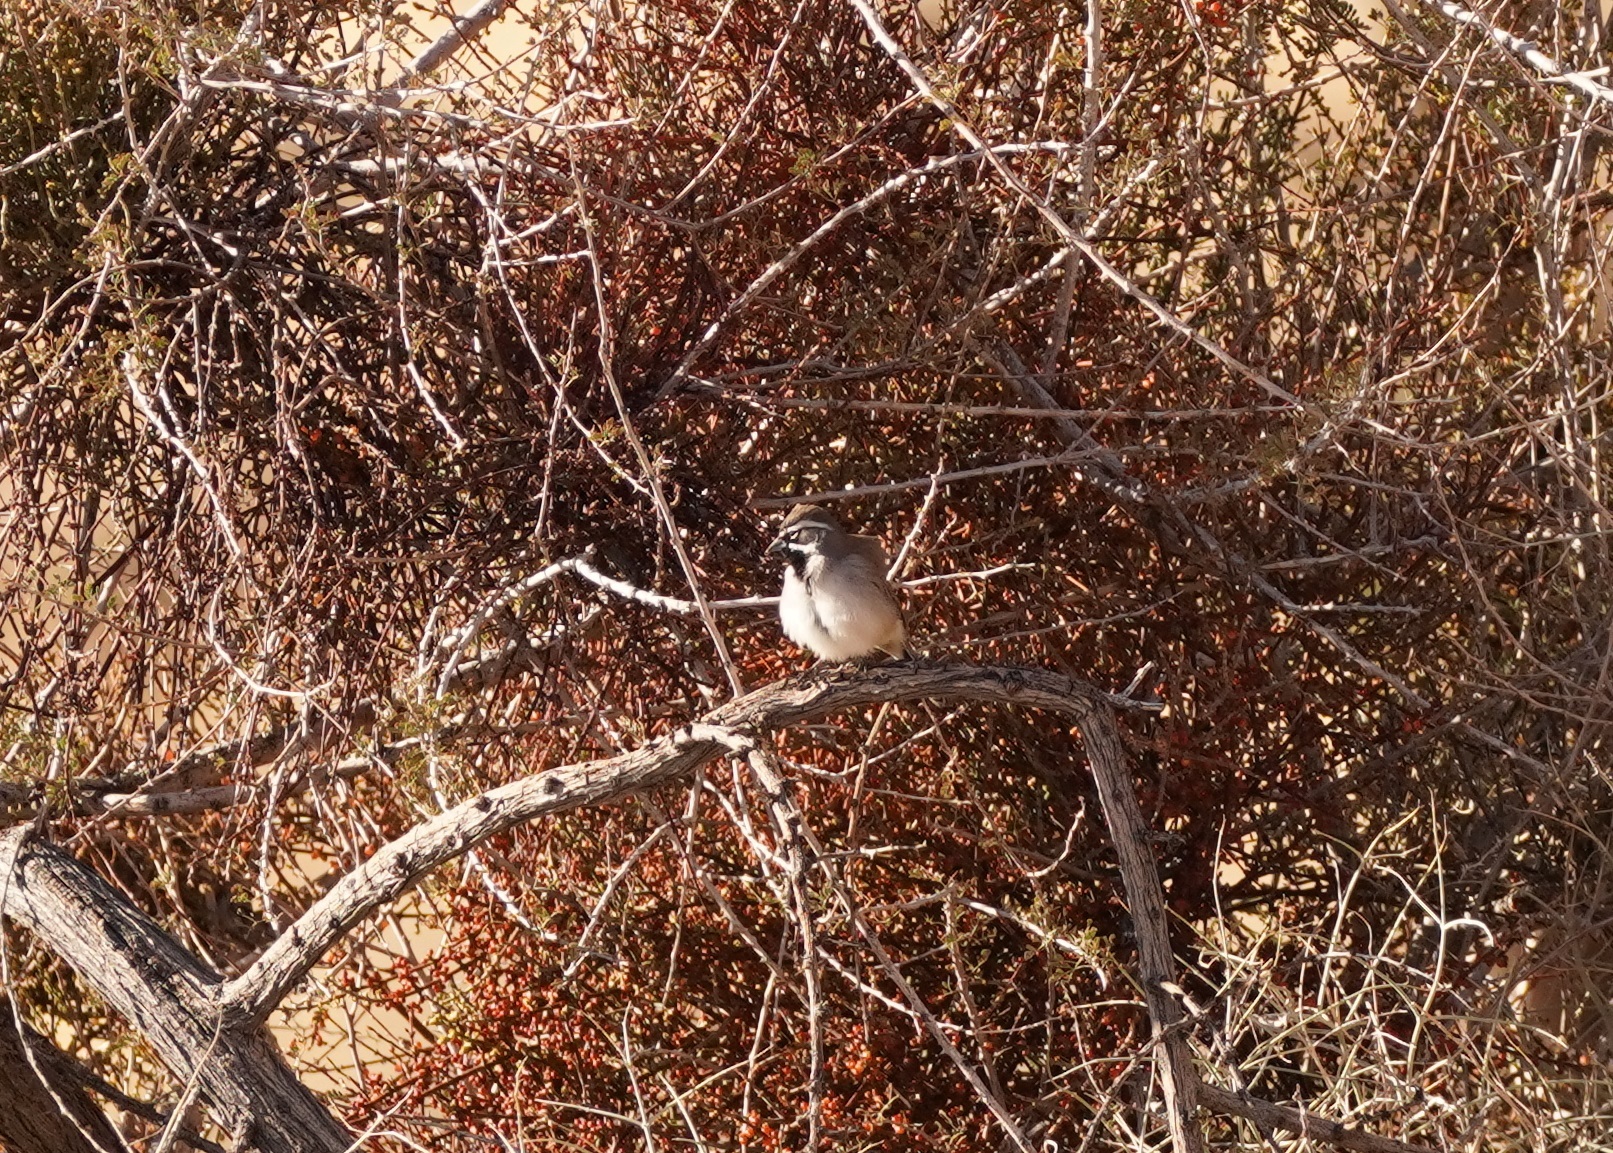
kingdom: Animalia
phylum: Chordata
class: Aves
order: Passeriformes
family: Passerellidae
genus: Amphispiza
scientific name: Amphispiza bilineata
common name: Black-throated sparrow
